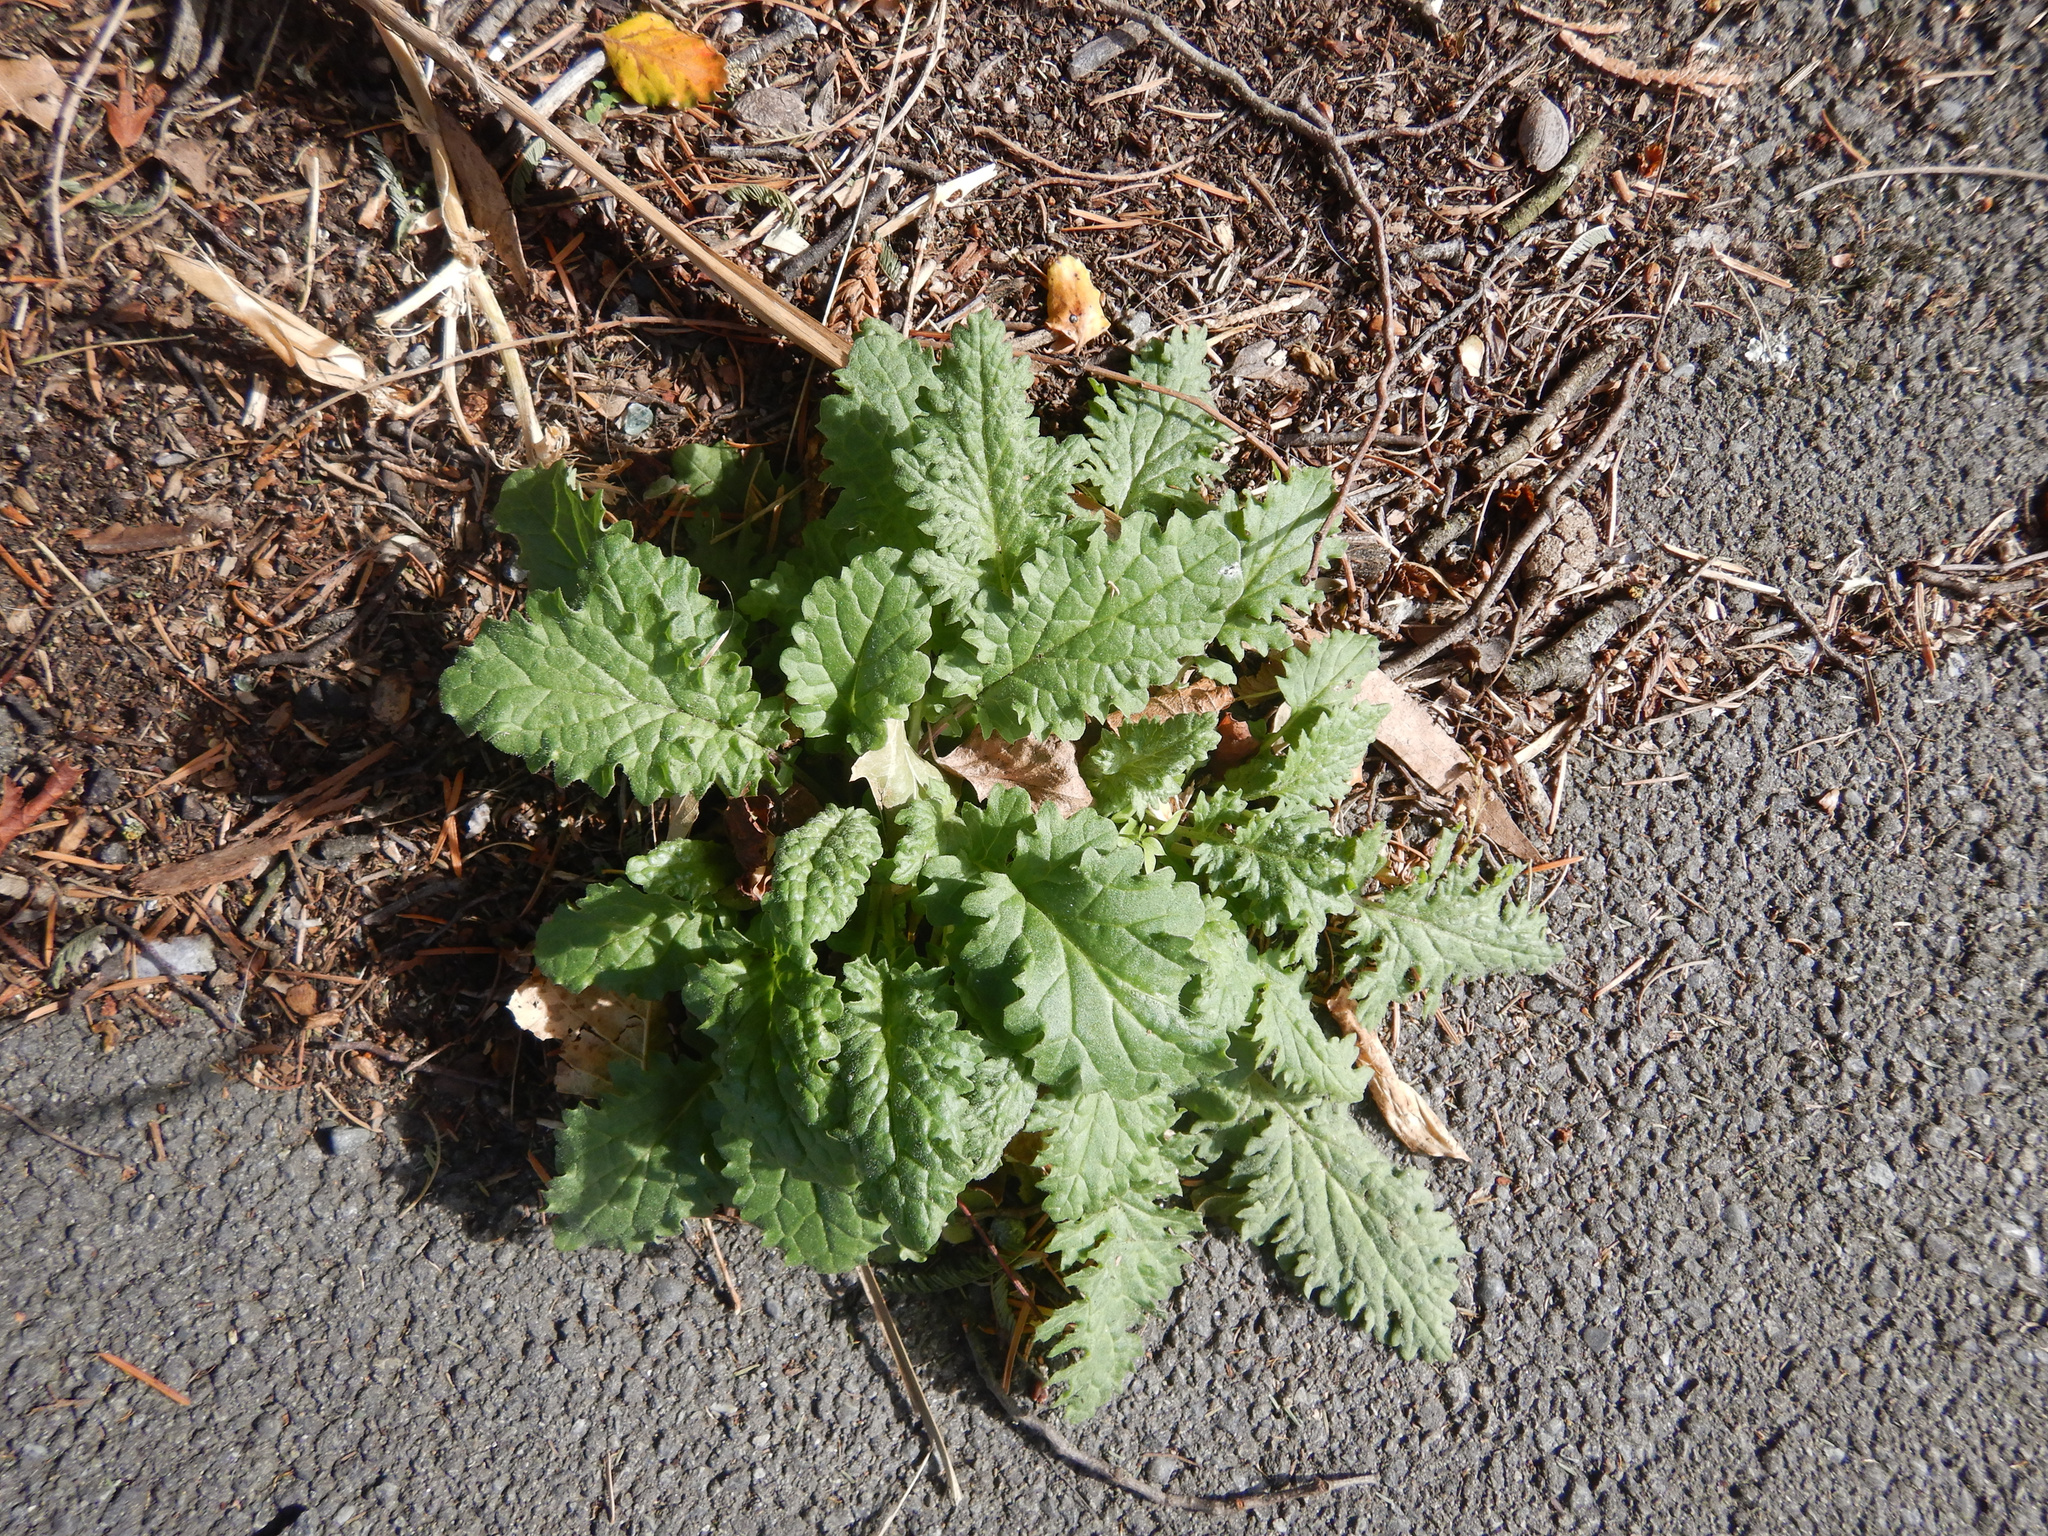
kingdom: Plantae
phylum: Tracheophyta
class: Magnoliopsida
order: Asterales
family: Asteraceae
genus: Jacobaea
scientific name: Jacobaea vulgaris
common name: Stinking willie
